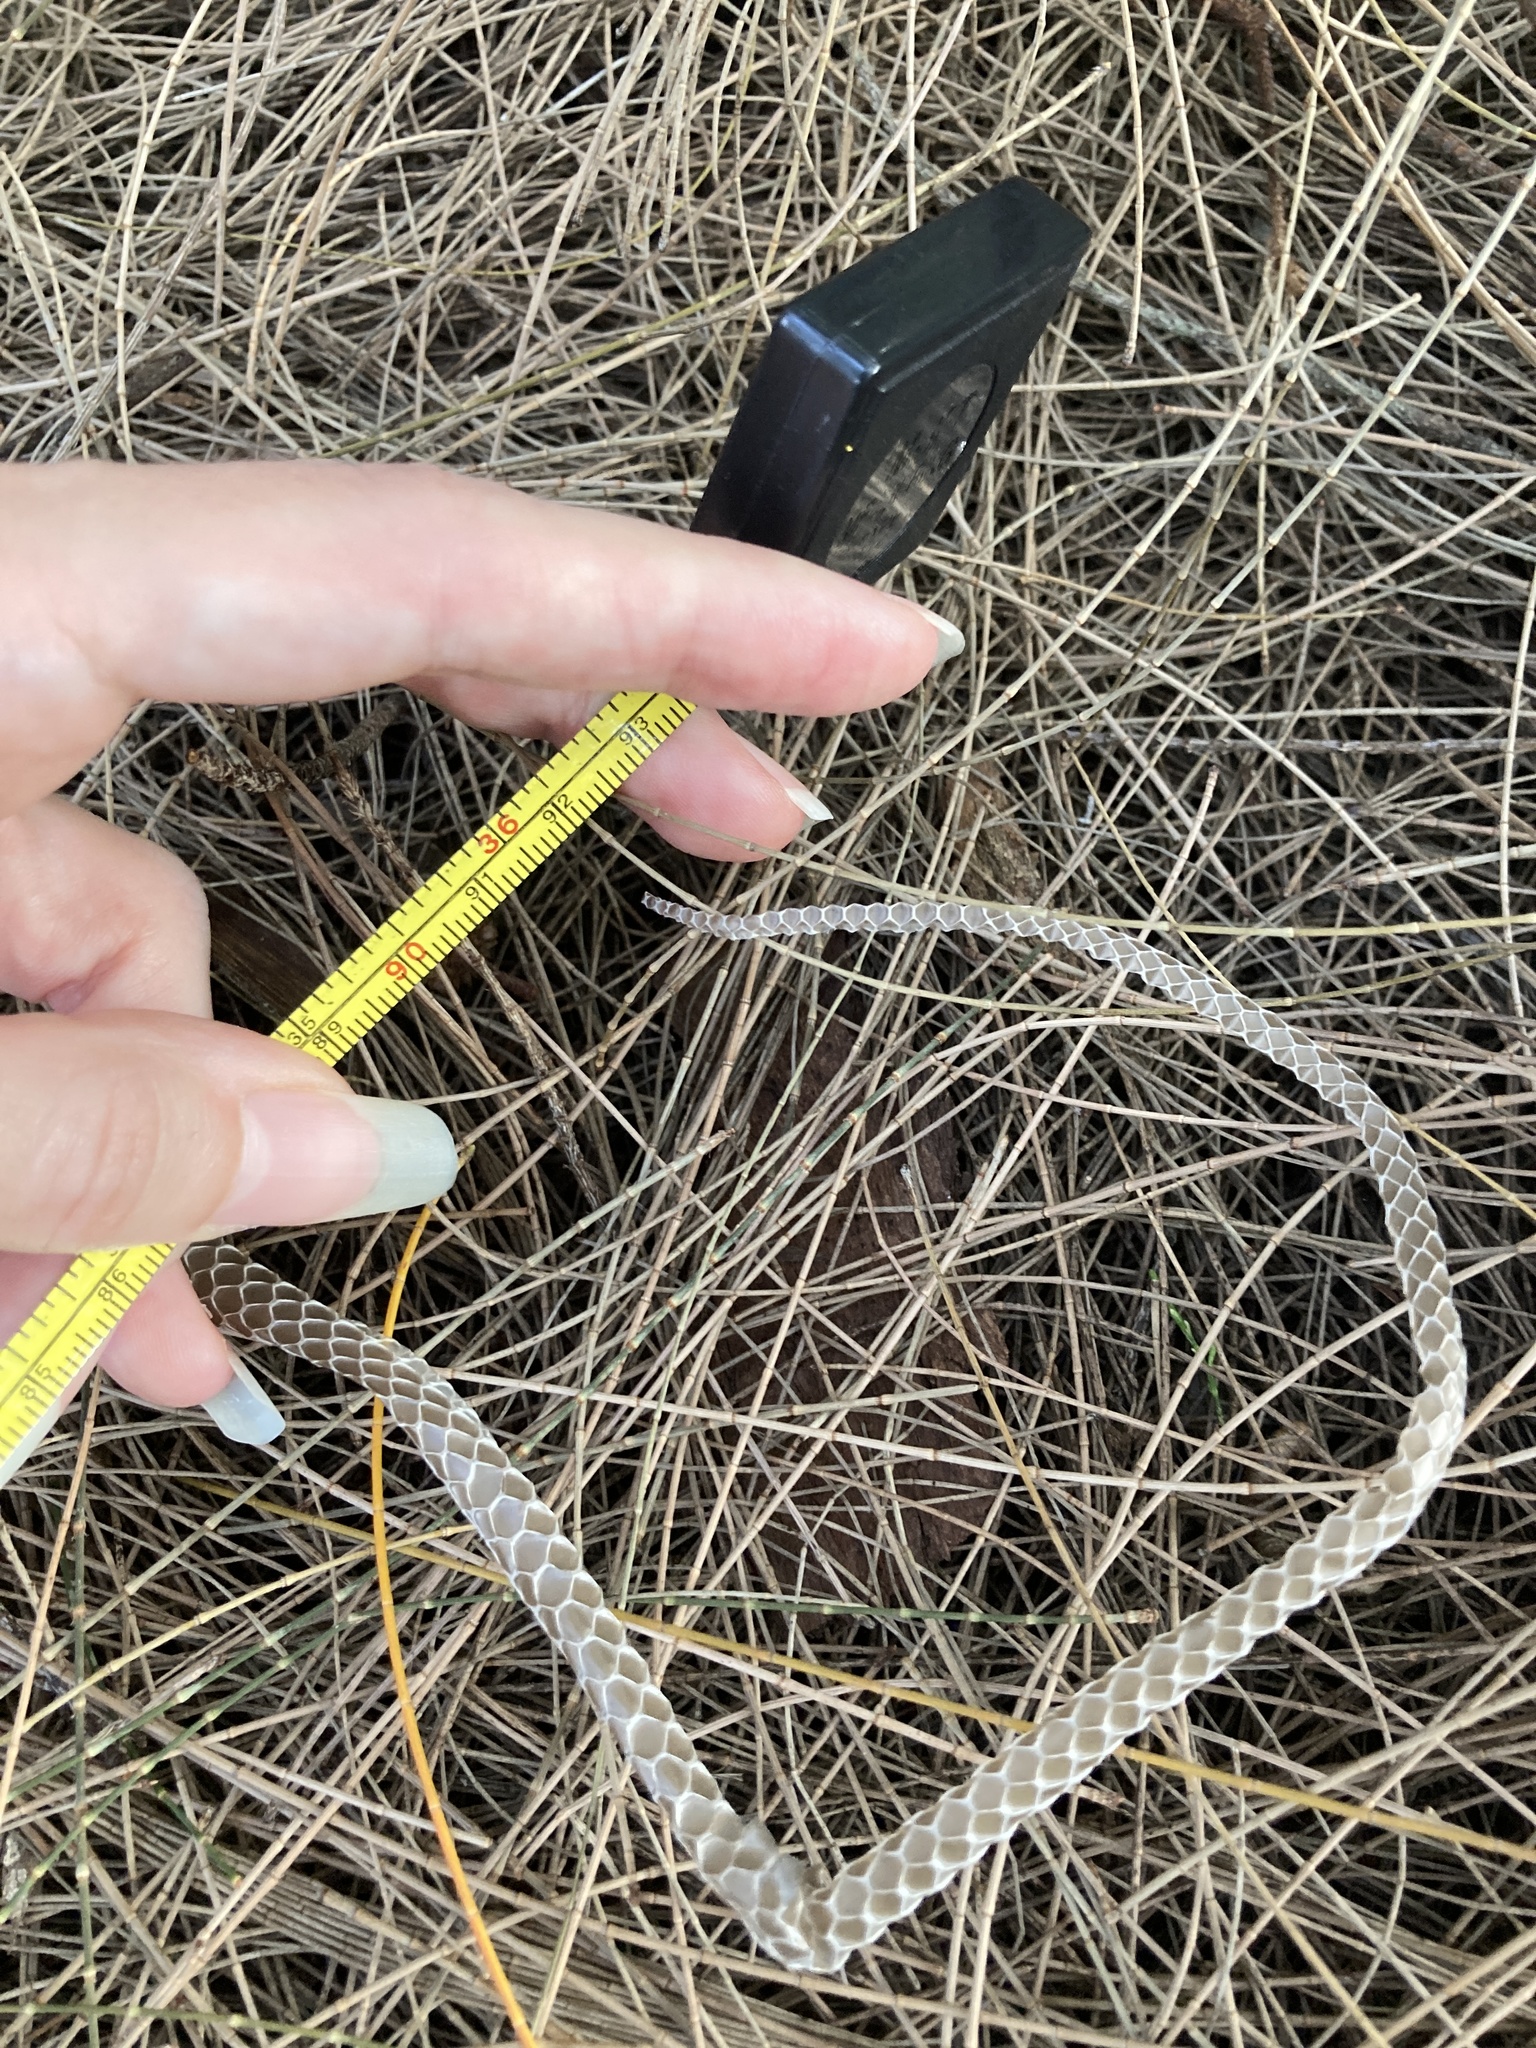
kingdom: Animalia
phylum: Chordata
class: Squamata
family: Colubridae
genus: Coluber
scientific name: Coluber constrictor
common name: Eastern racer
